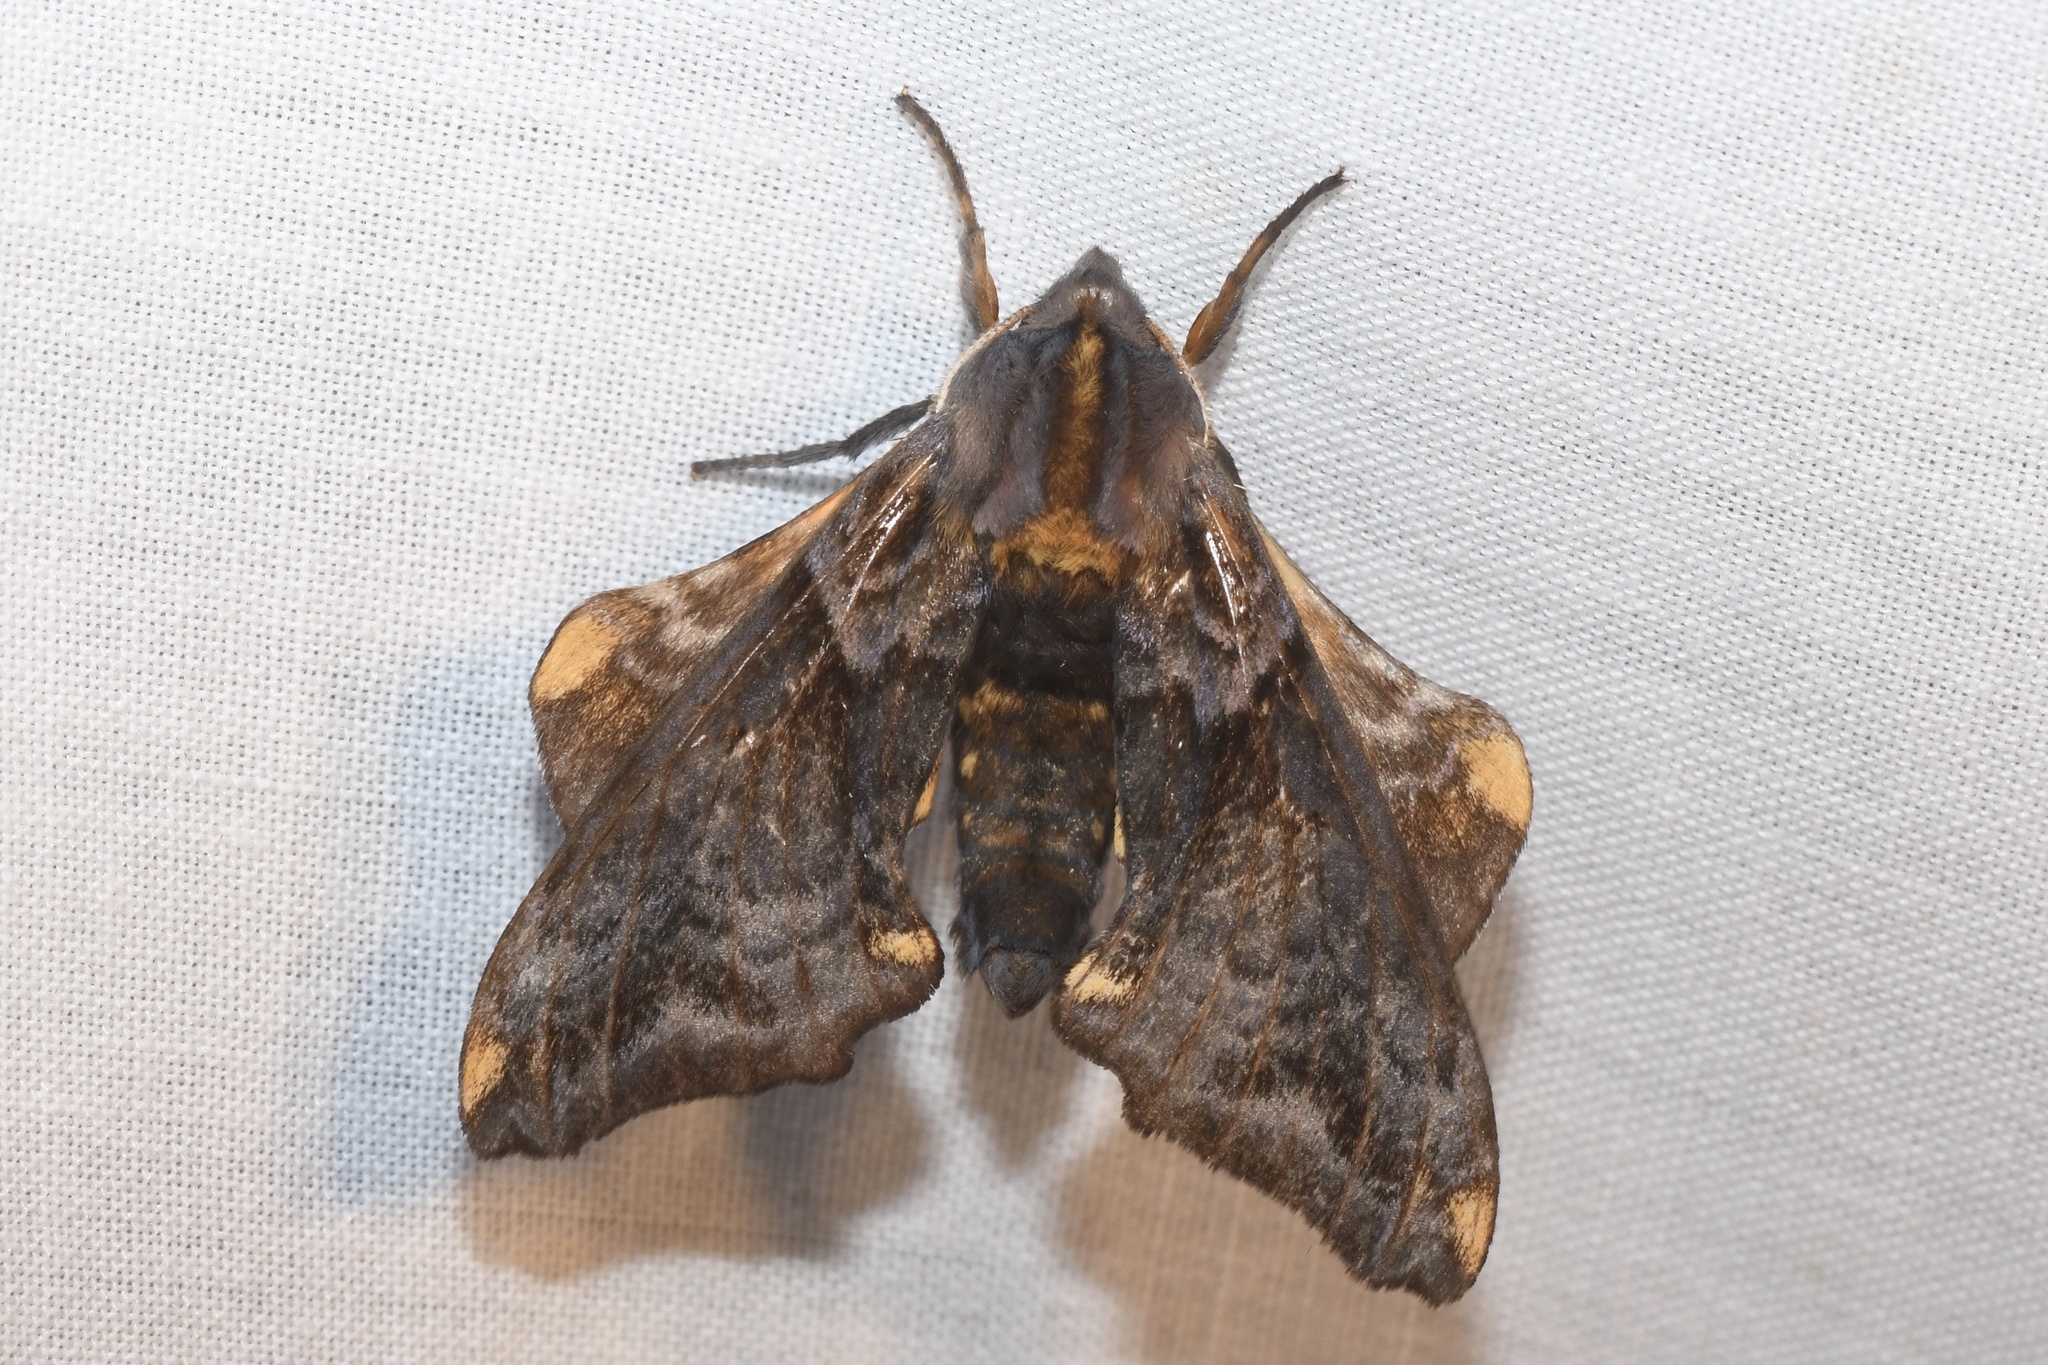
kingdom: Animalia
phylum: Arthropoda
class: Insecta
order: Lepidoptera
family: Sphingidae
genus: Paonias
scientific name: Paonias myops
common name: Small-eyed sphinx
